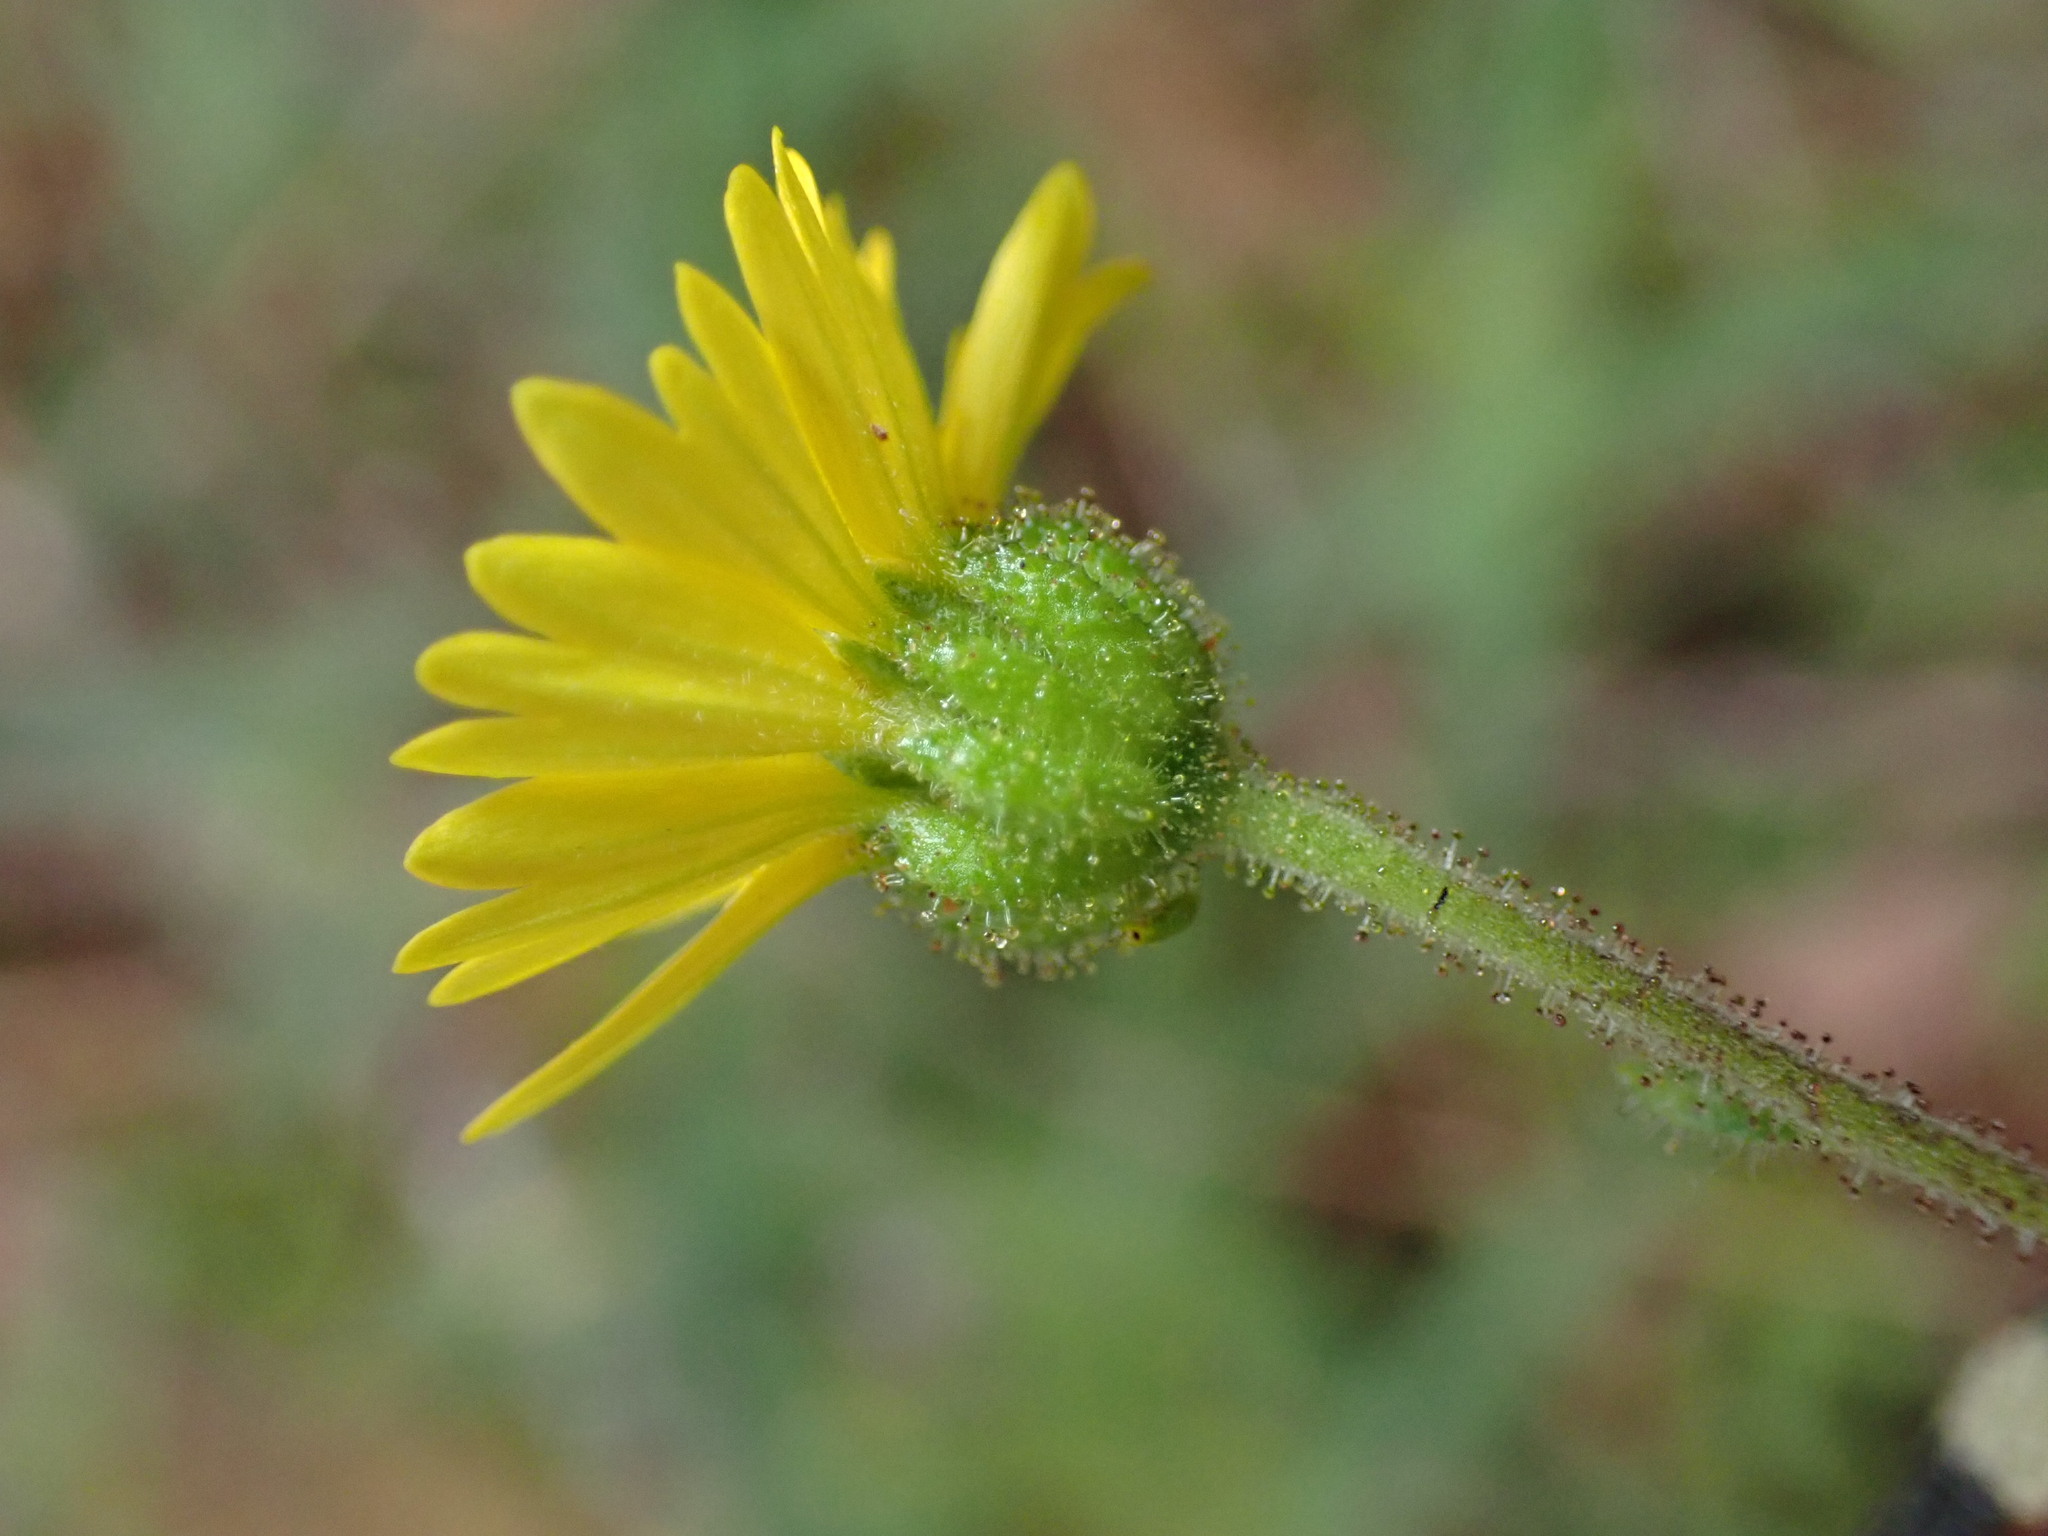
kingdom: Plantae
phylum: Tracheophyta
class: Magnoliopsida
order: Asterales
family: Asteraceae
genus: Anisocarpus
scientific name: Anisocarpus madioides
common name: Woodland madia
